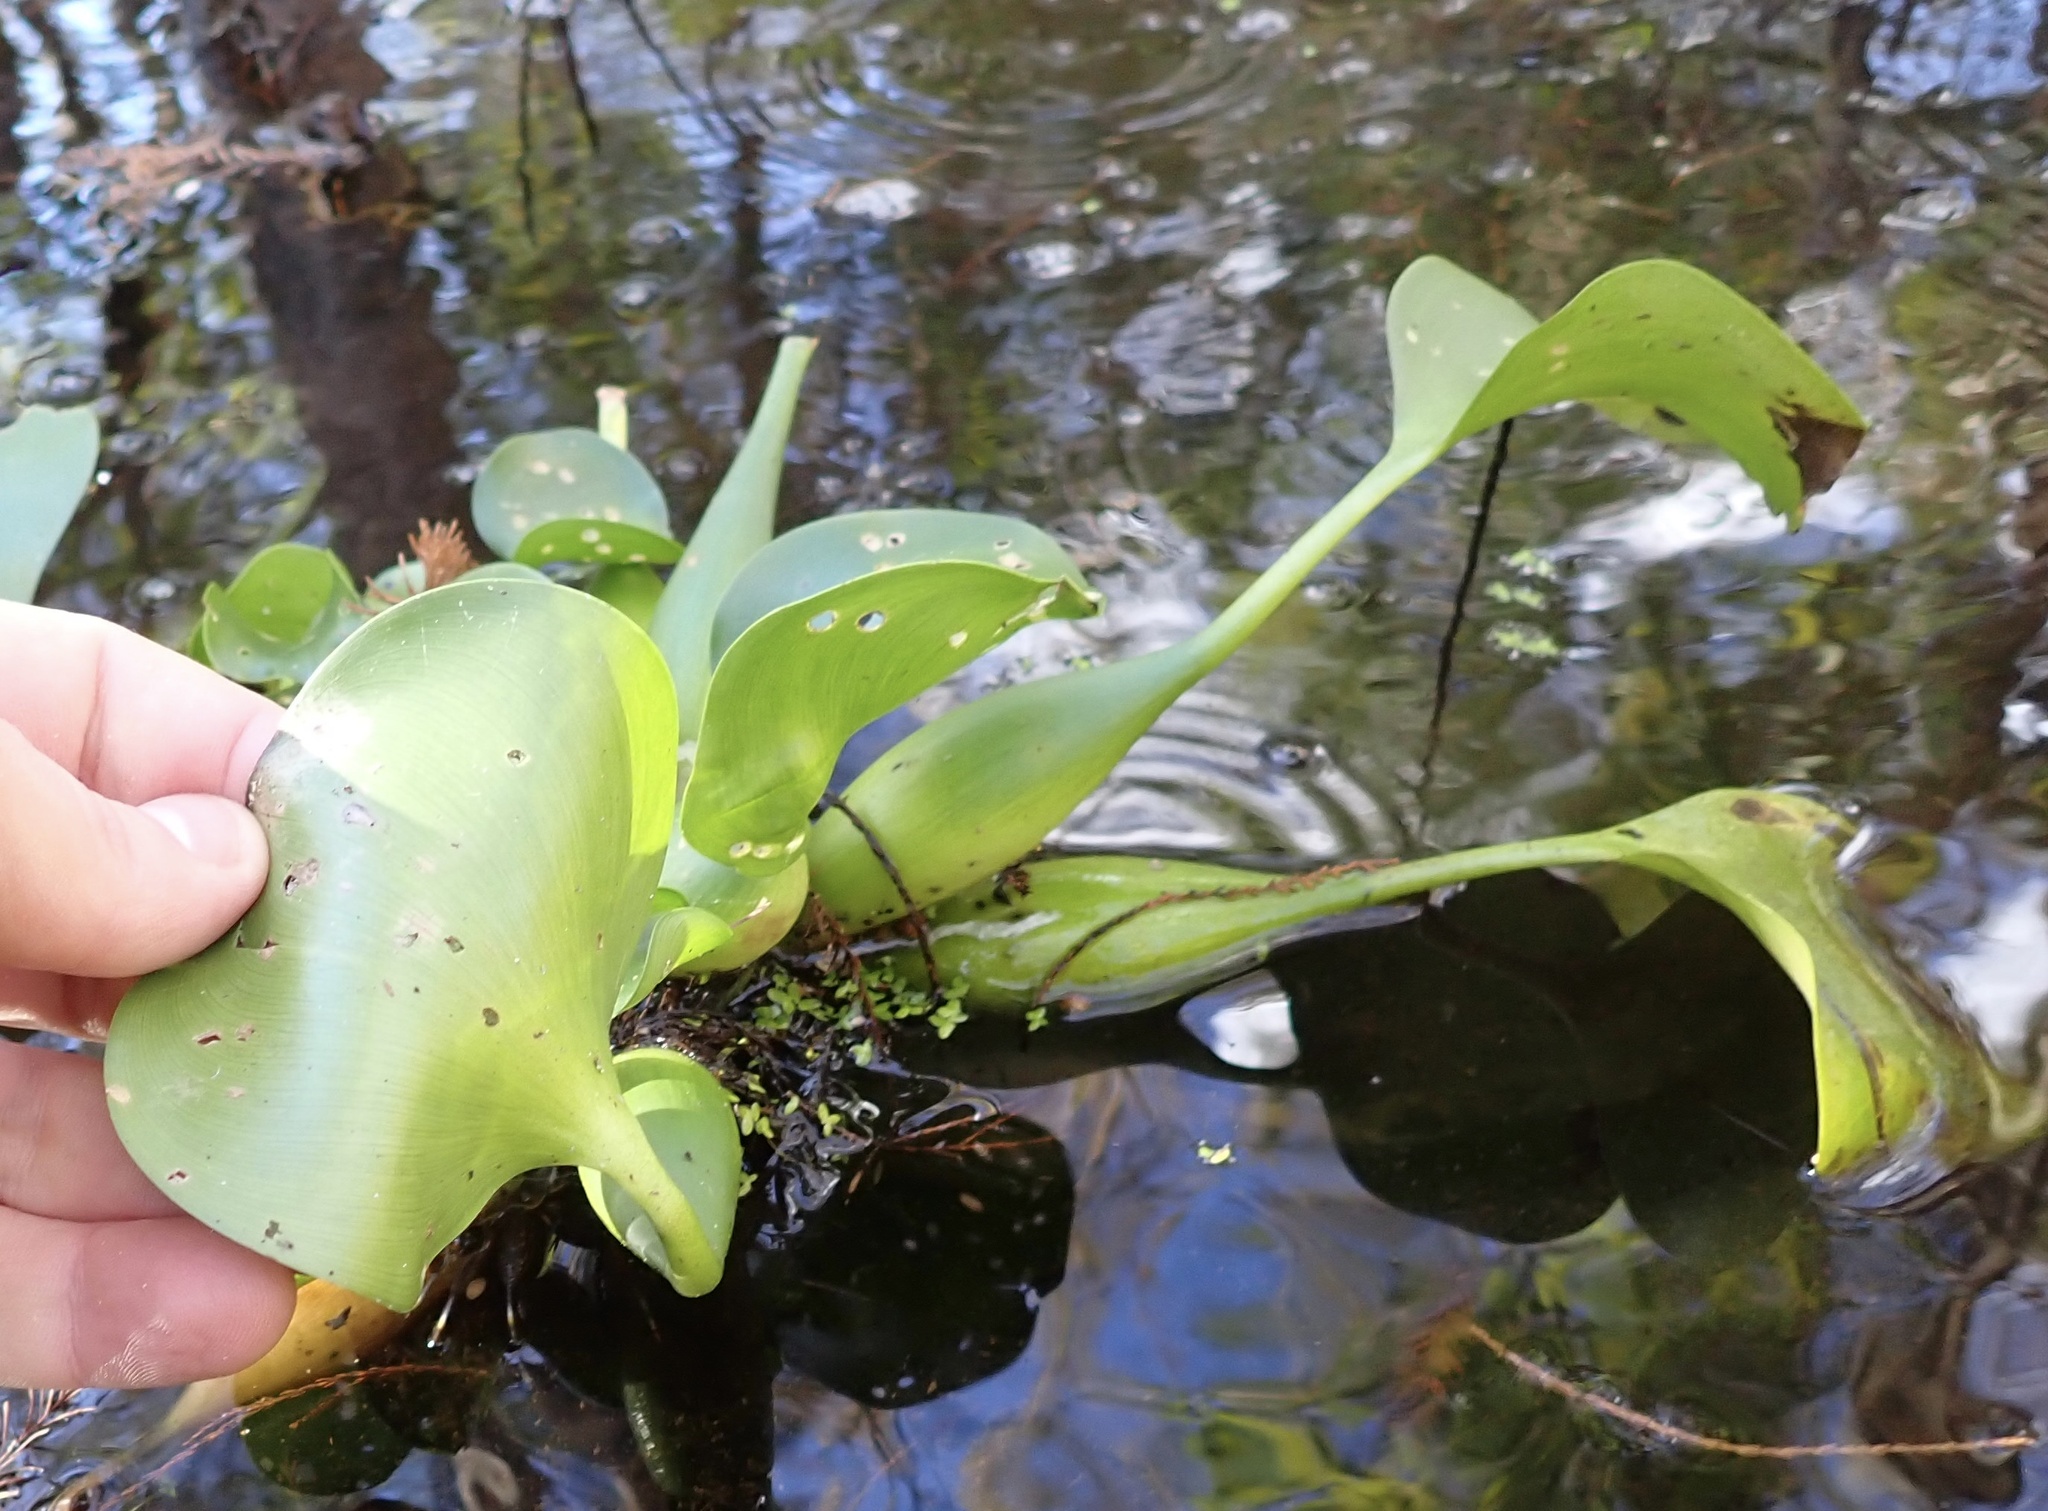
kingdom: Plantae
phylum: Tracheophyta
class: Liliopsida
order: Commelinales
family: Pontederiaceae
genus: Pontederia
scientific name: Pontederia crassipes
